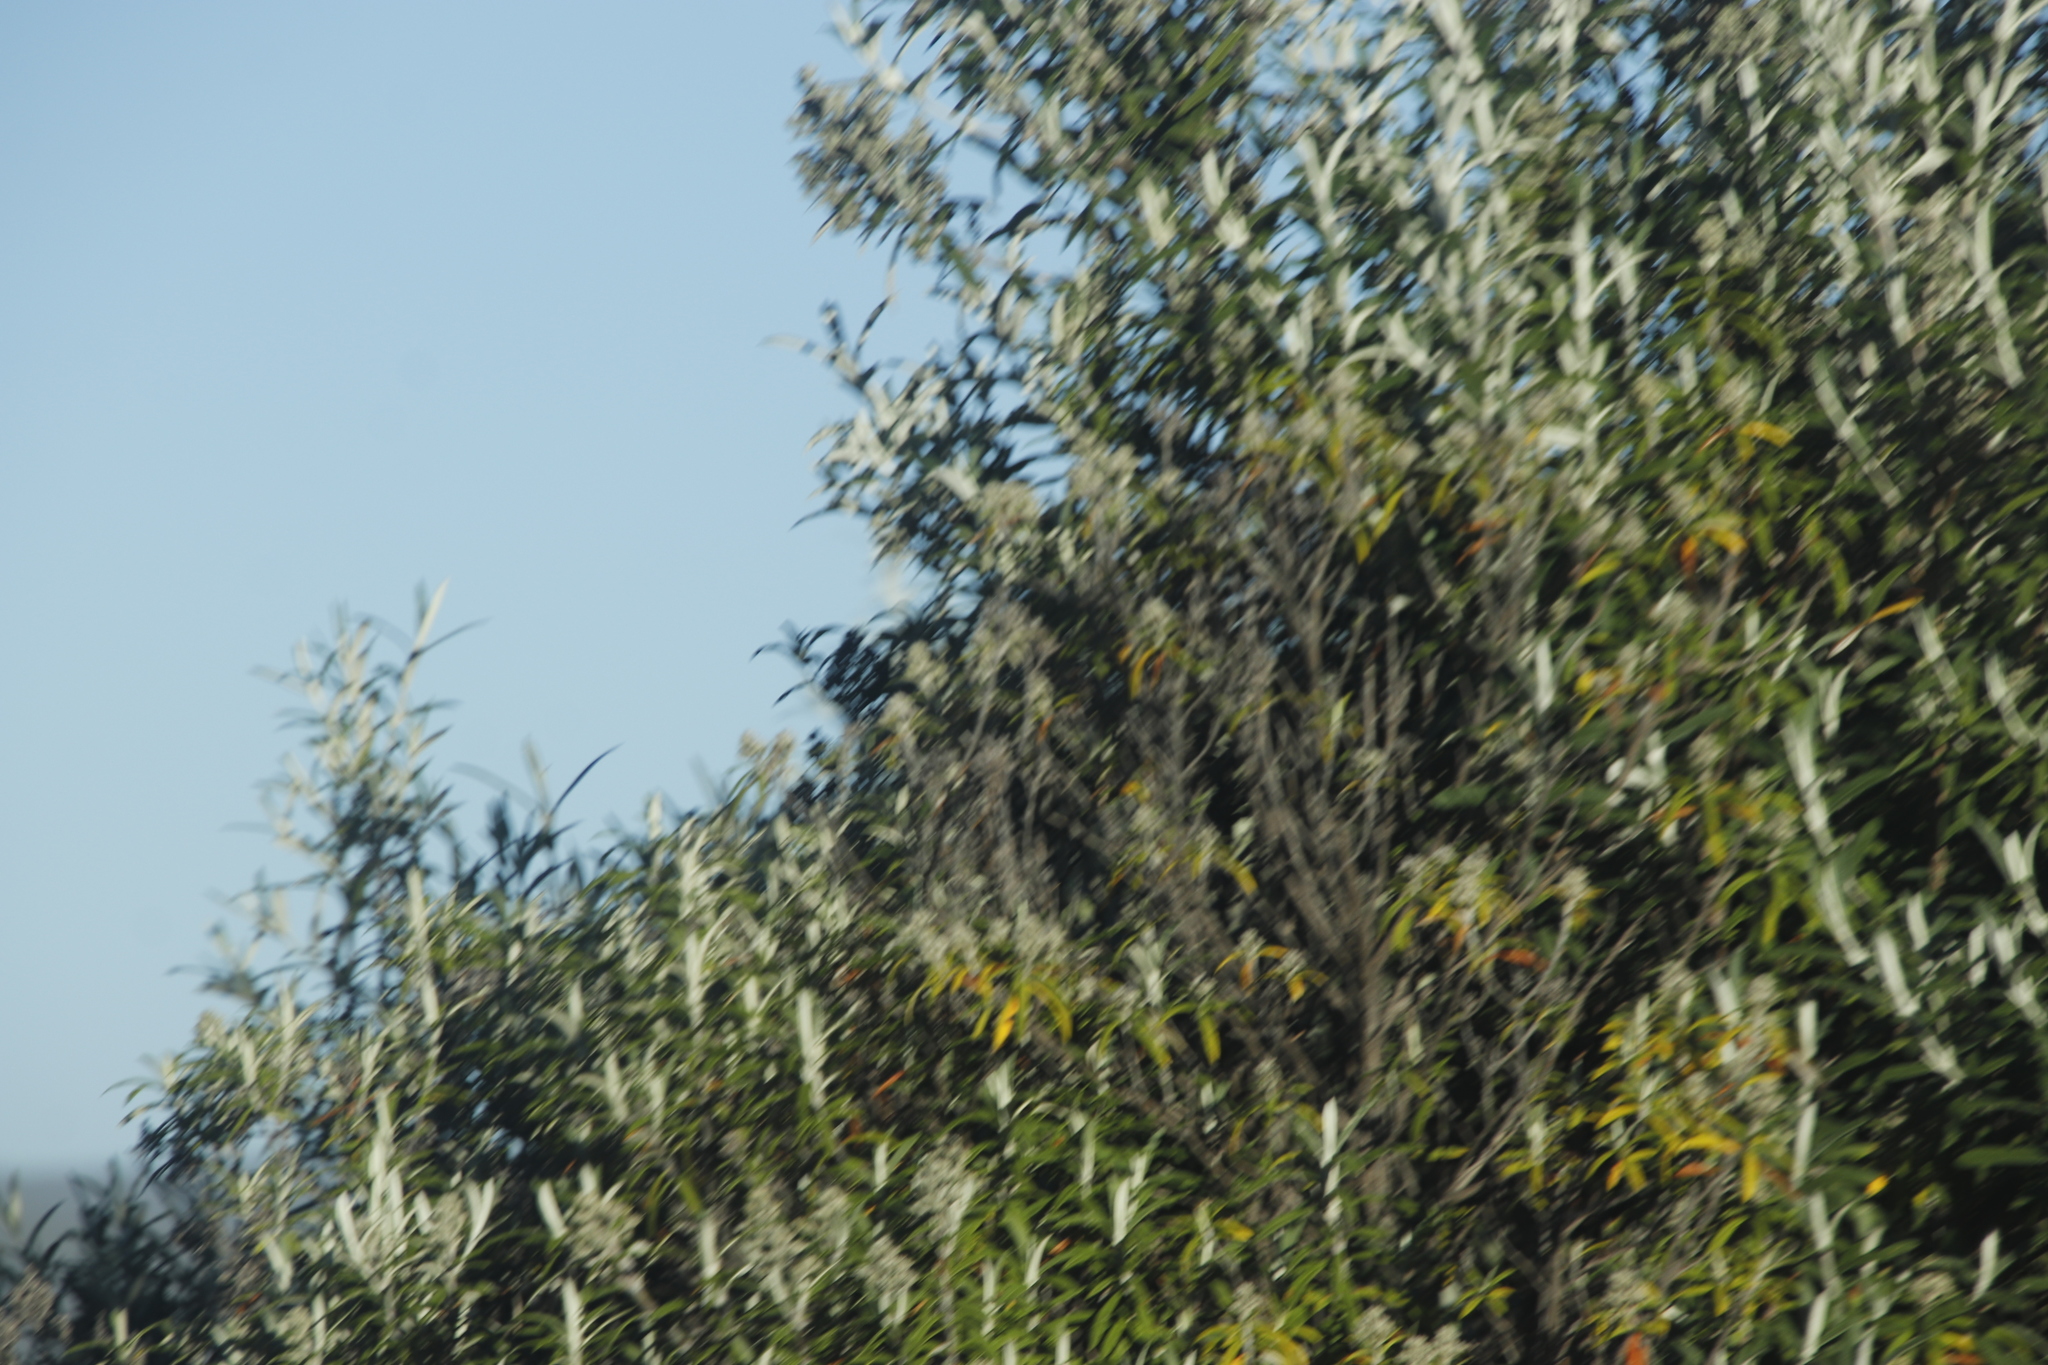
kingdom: Plantae
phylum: Tracheophyta
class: Magnoliopsida
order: Lamiales
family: Scrophulariaceae
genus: Buddleja
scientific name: Buddleja loricata
